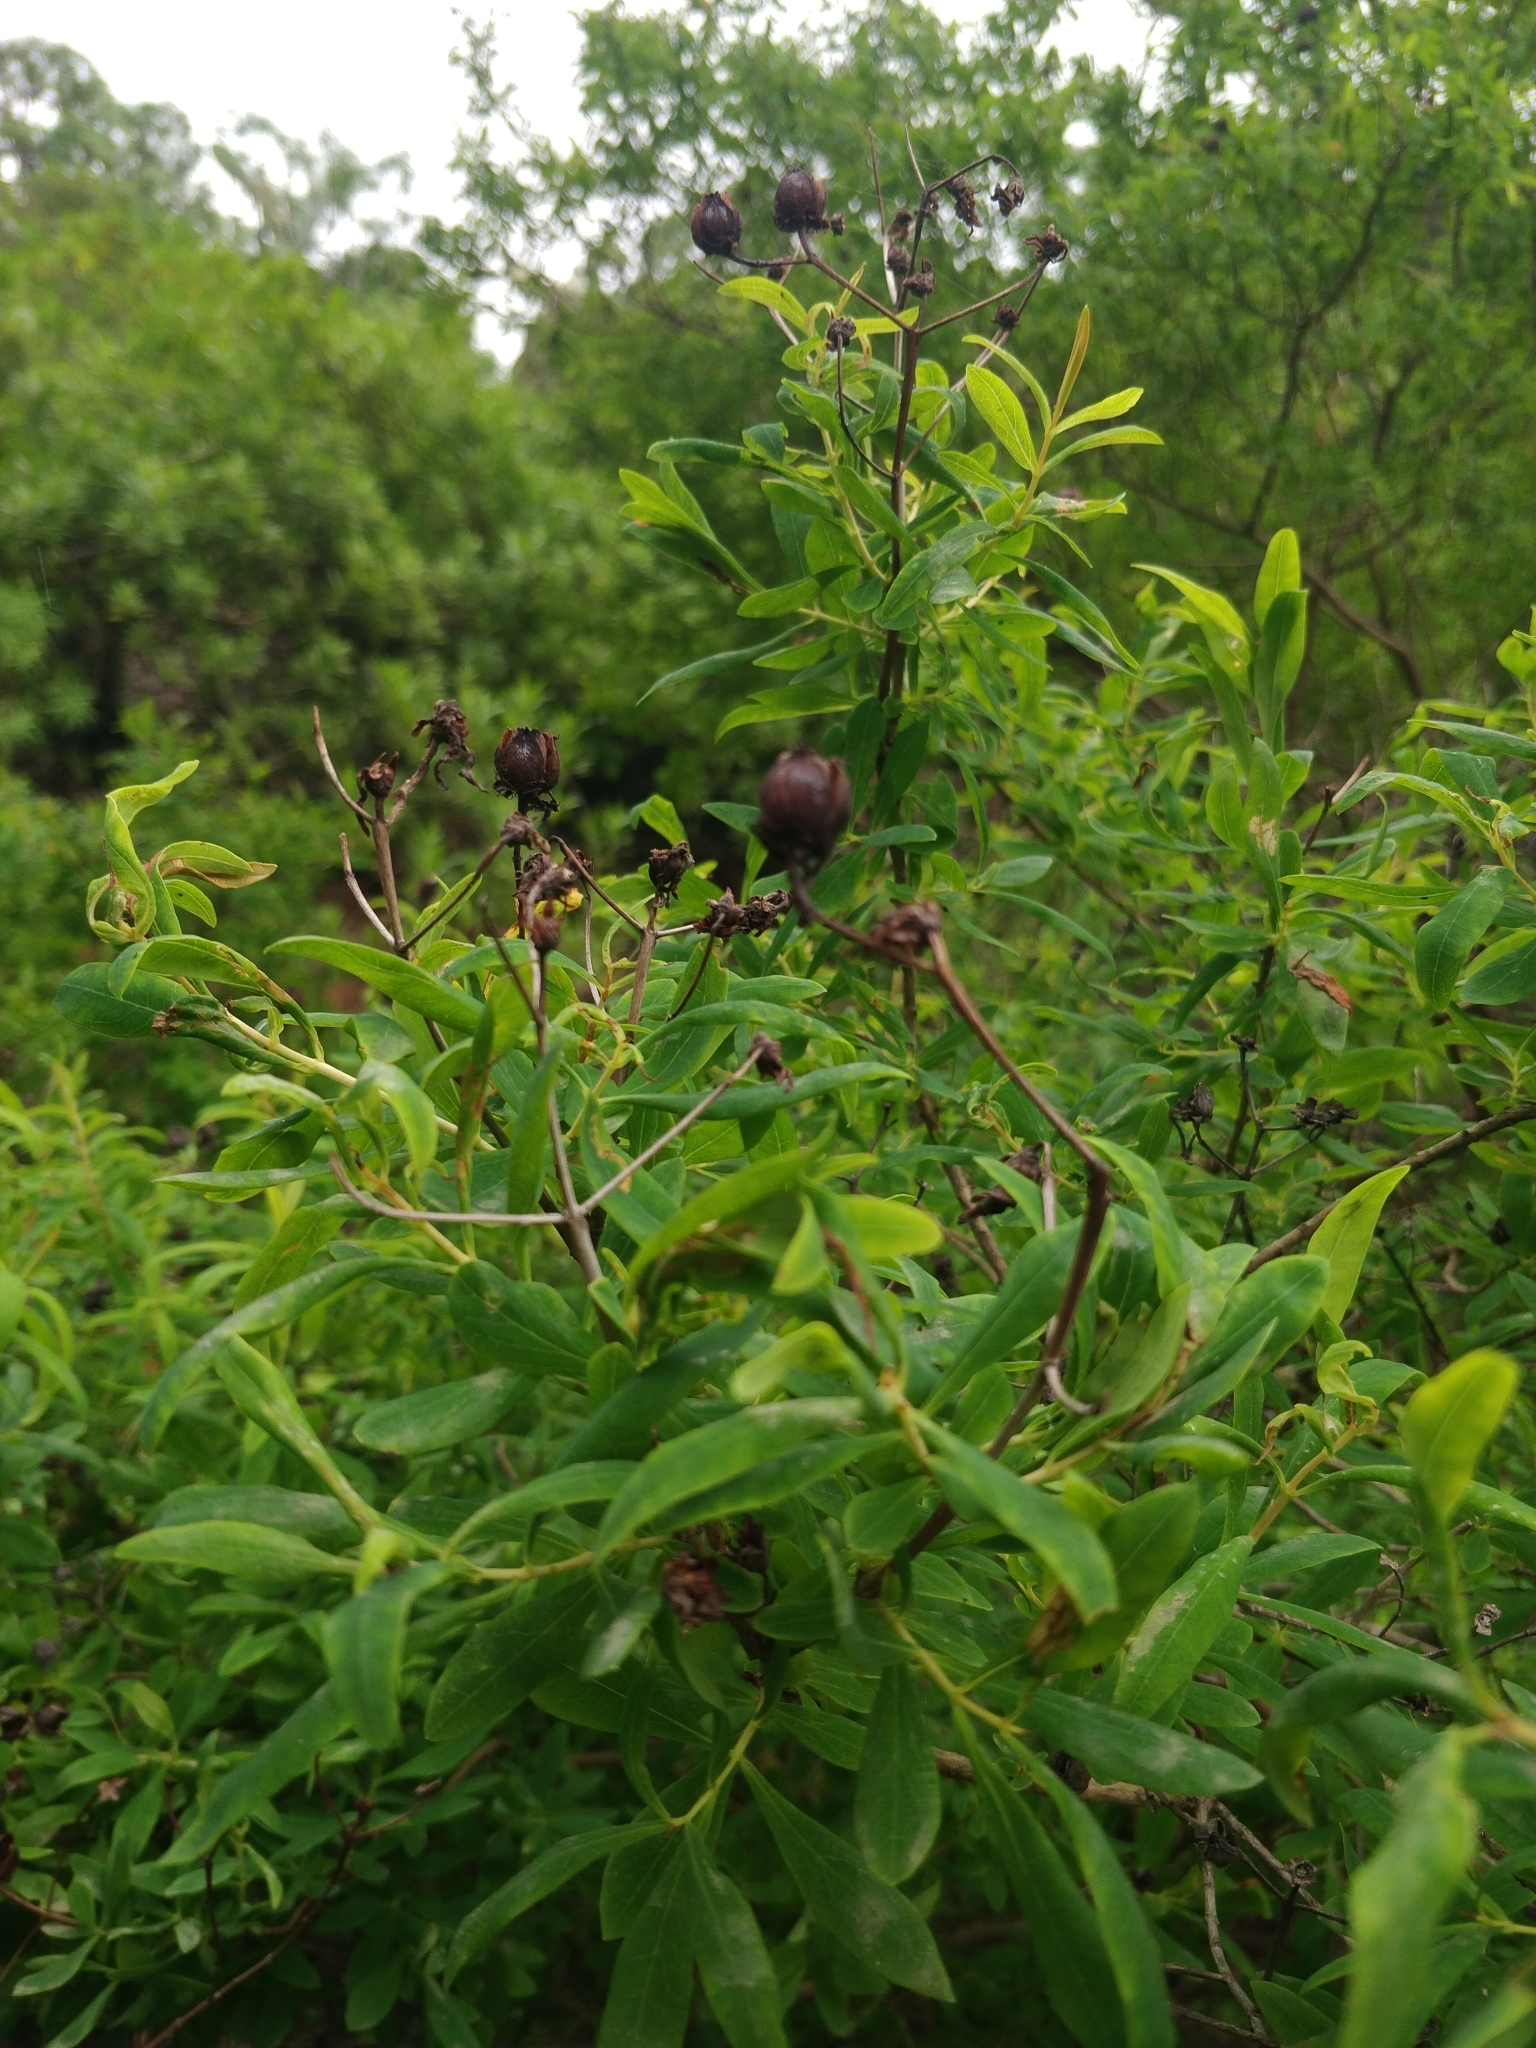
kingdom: Plantae
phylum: Tracheophyta
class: Magnoliopsida
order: Malpighiales
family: Hypericaceae
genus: Hypericum
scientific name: Hypericum canariense
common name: Canary island st. johnswort
